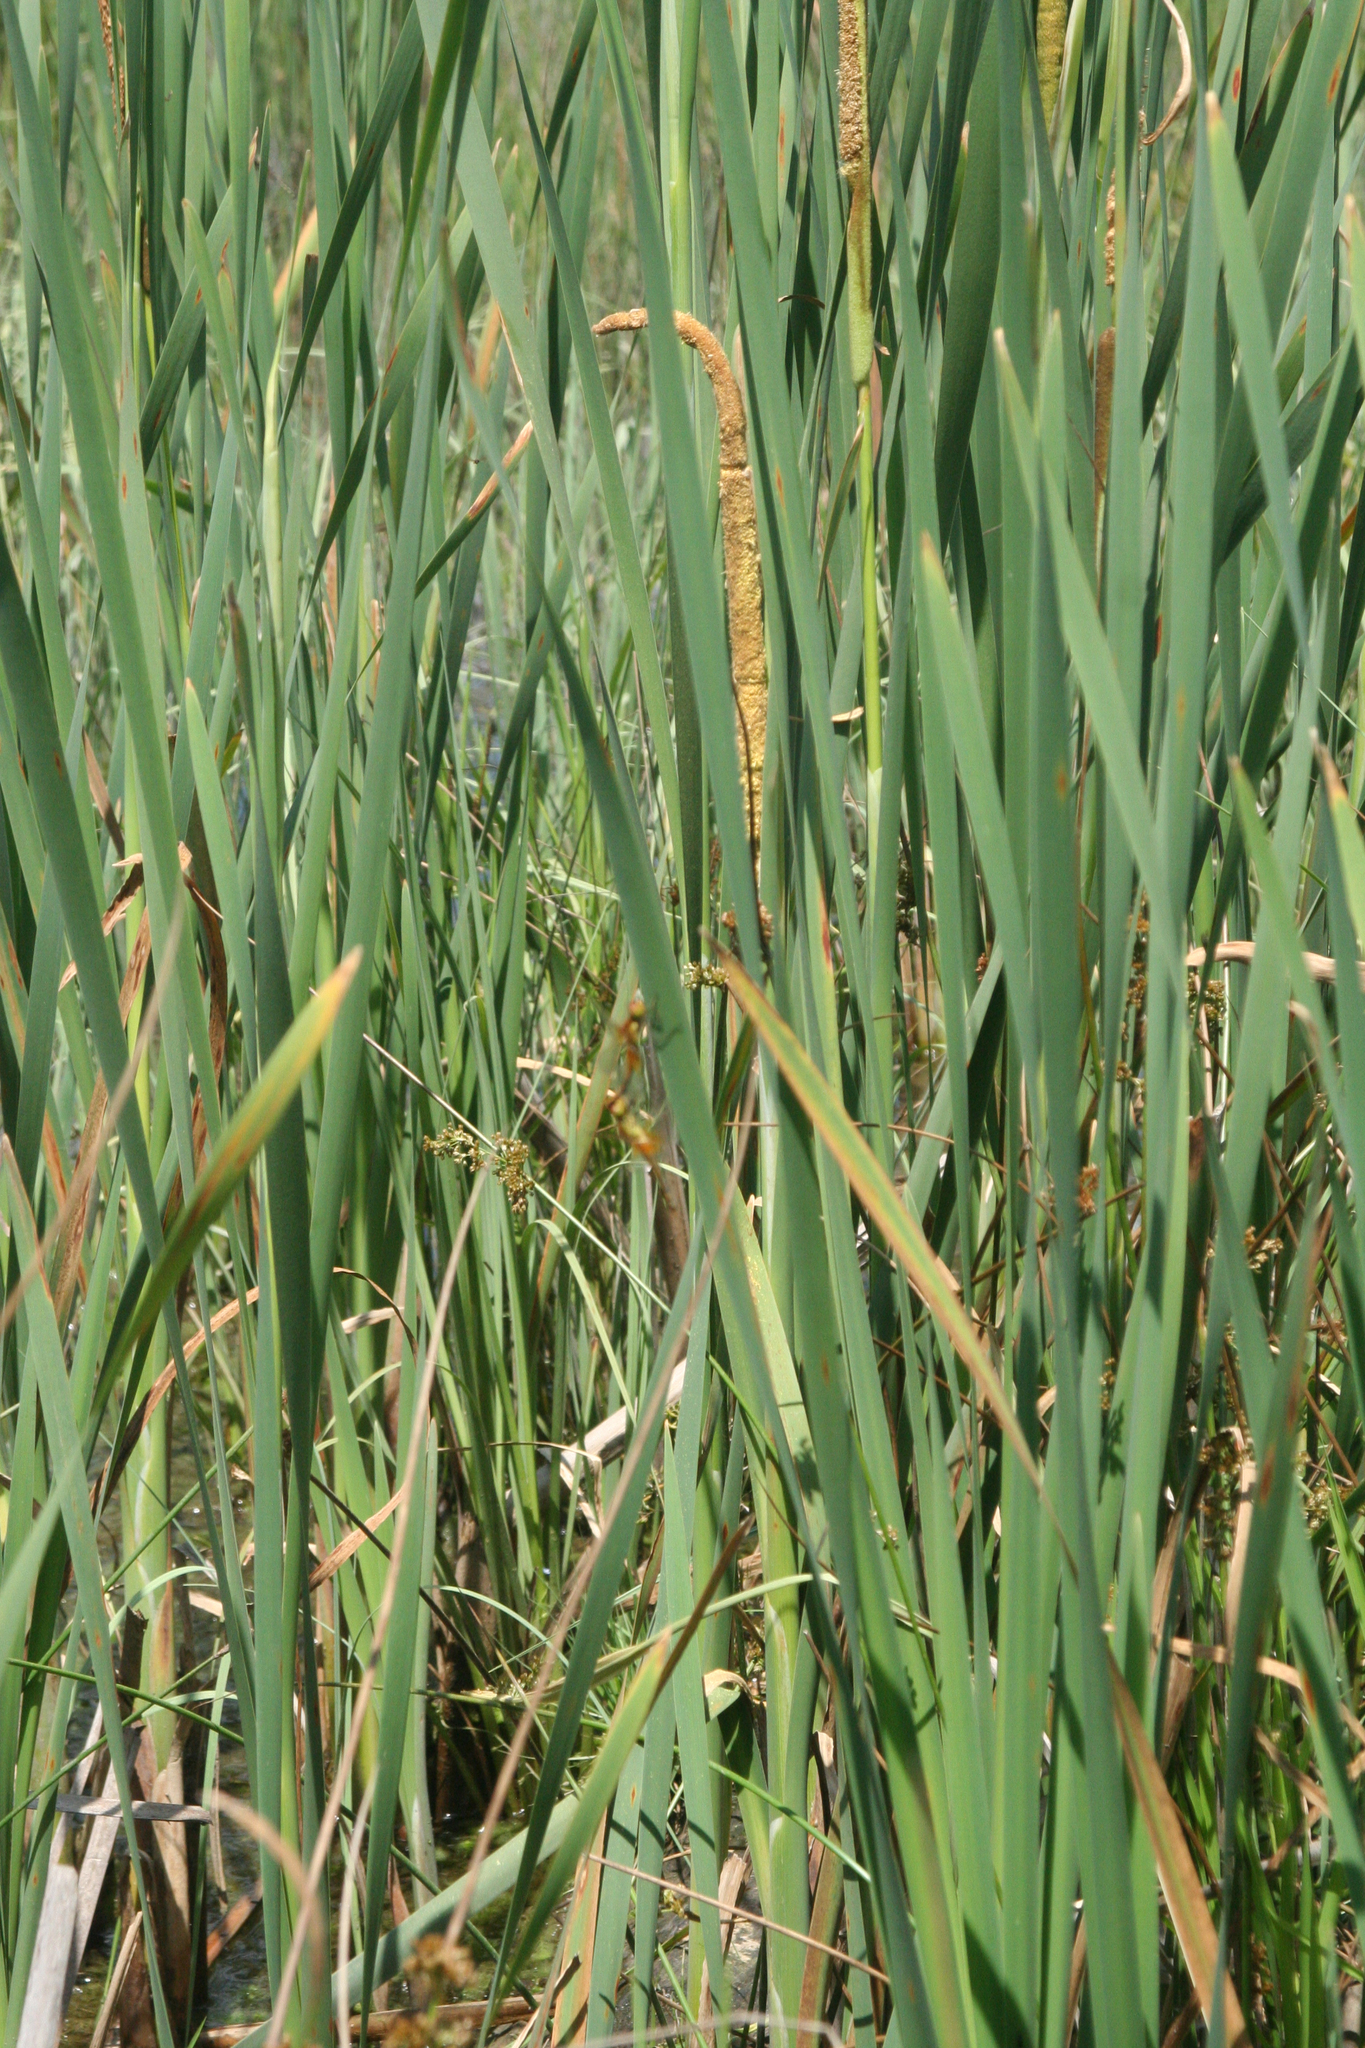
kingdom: Plantae
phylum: Tracheophyta
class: Liliopsida
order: Poales
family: Typhaceae
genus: Typha
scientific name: Typha latifolia
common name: Broadleaf cattail
